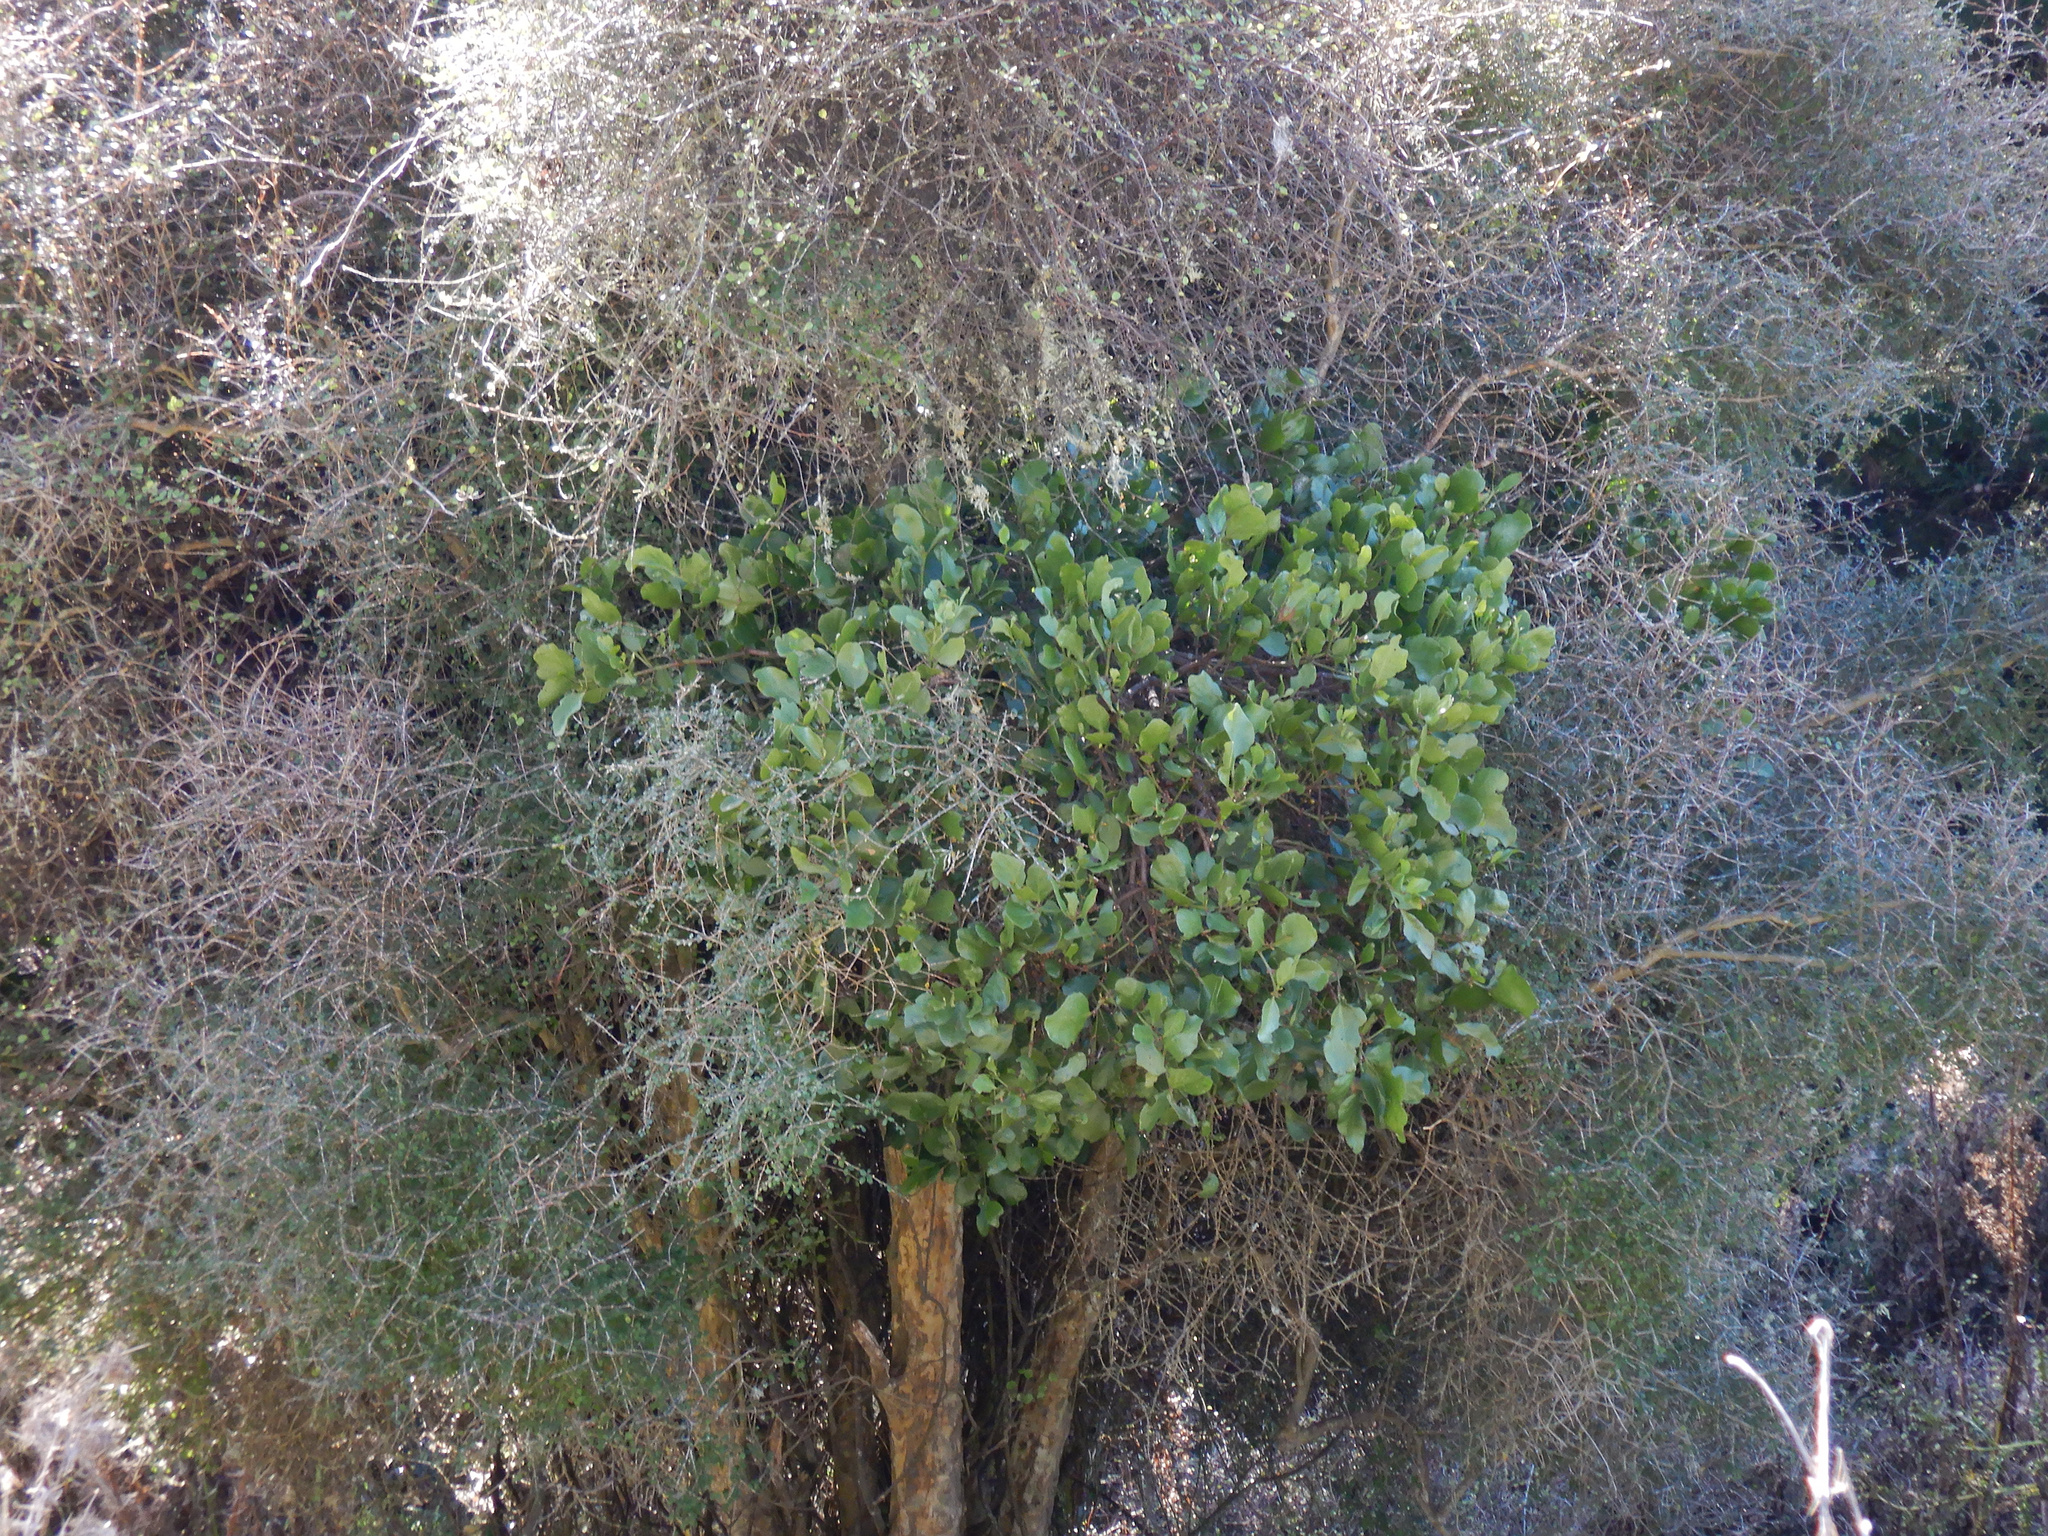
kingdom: Plantae
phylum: Tracheophyta
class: Magnoliopsida
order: Santalales
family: Loranthaceae
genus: Ileostylus
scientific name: Ileostylus micranthus
